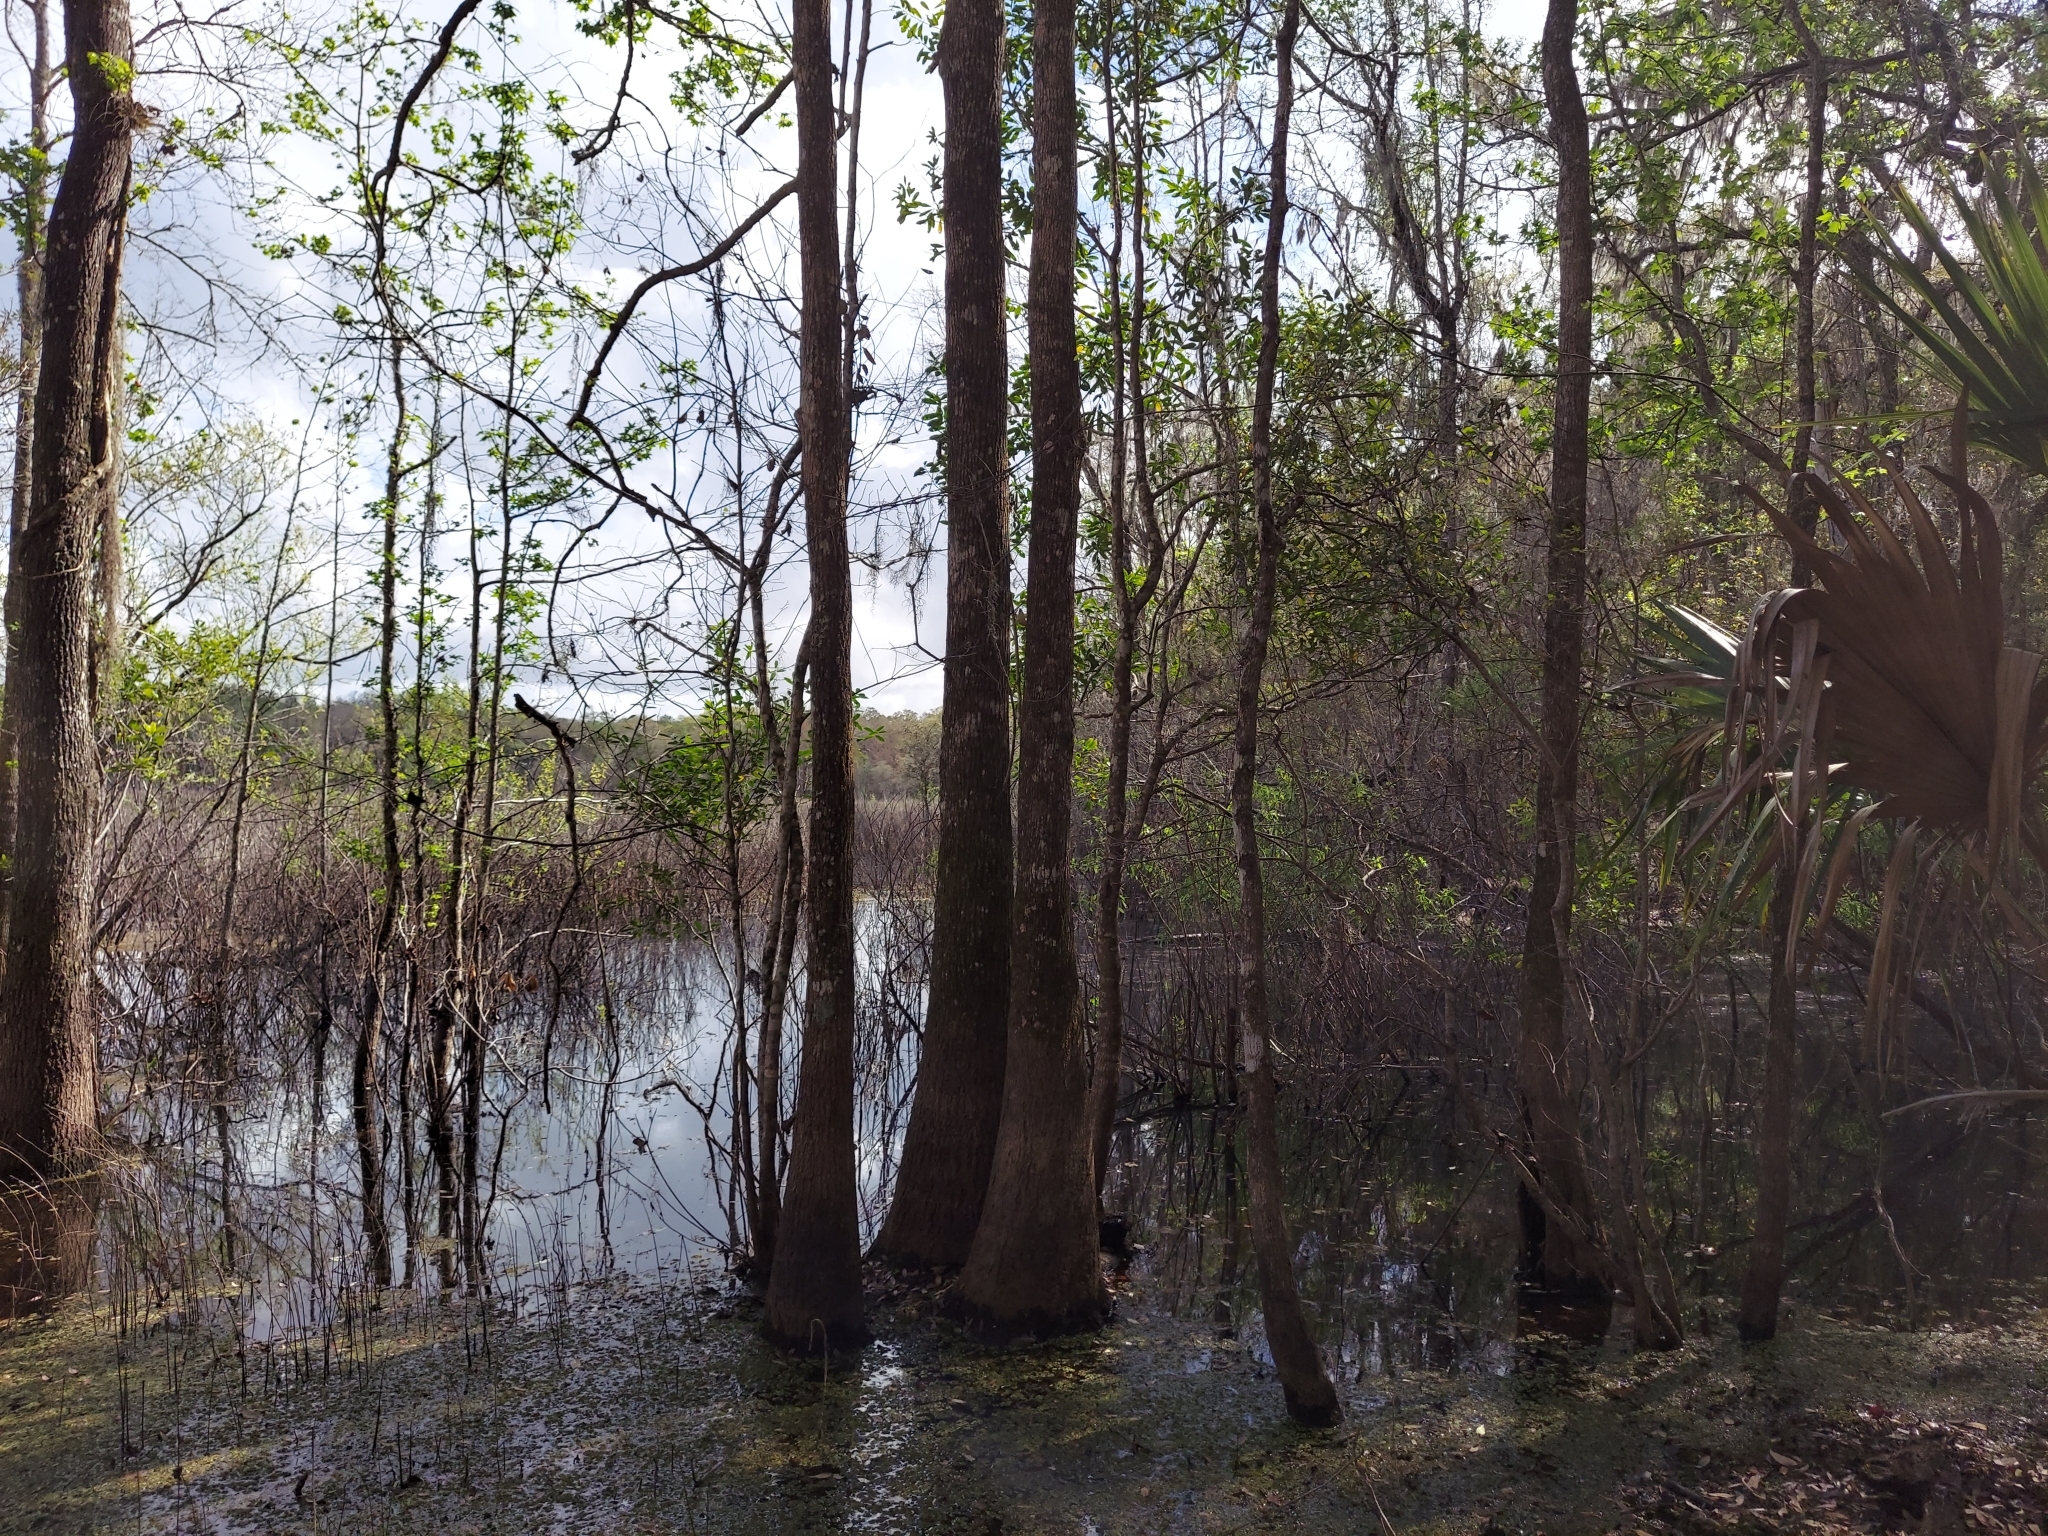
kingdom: Plantae
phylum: Tracheophyta
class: Magnoliopsida
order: Malpighiales
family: Salicaceae
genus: Salix
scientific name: Salix caroliniana
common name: Carolina willow
